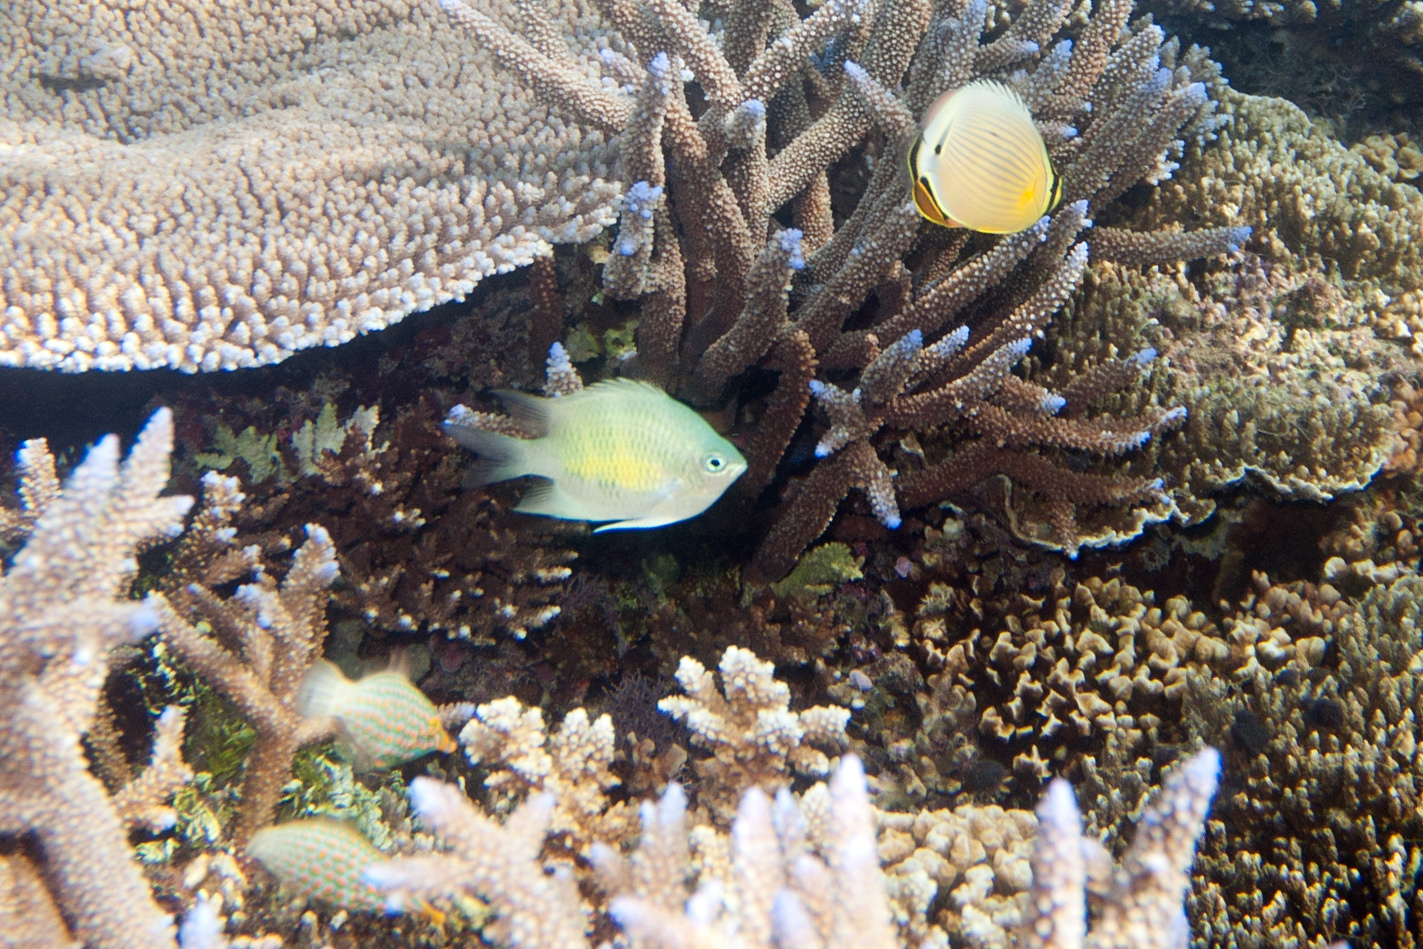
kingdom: Animalia
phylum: Chordata
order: Perciformes
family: Pomacentridae
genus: Amblyglyphidodon
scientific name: Amblyglyphidodon curacao
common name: Staghorn damsel
